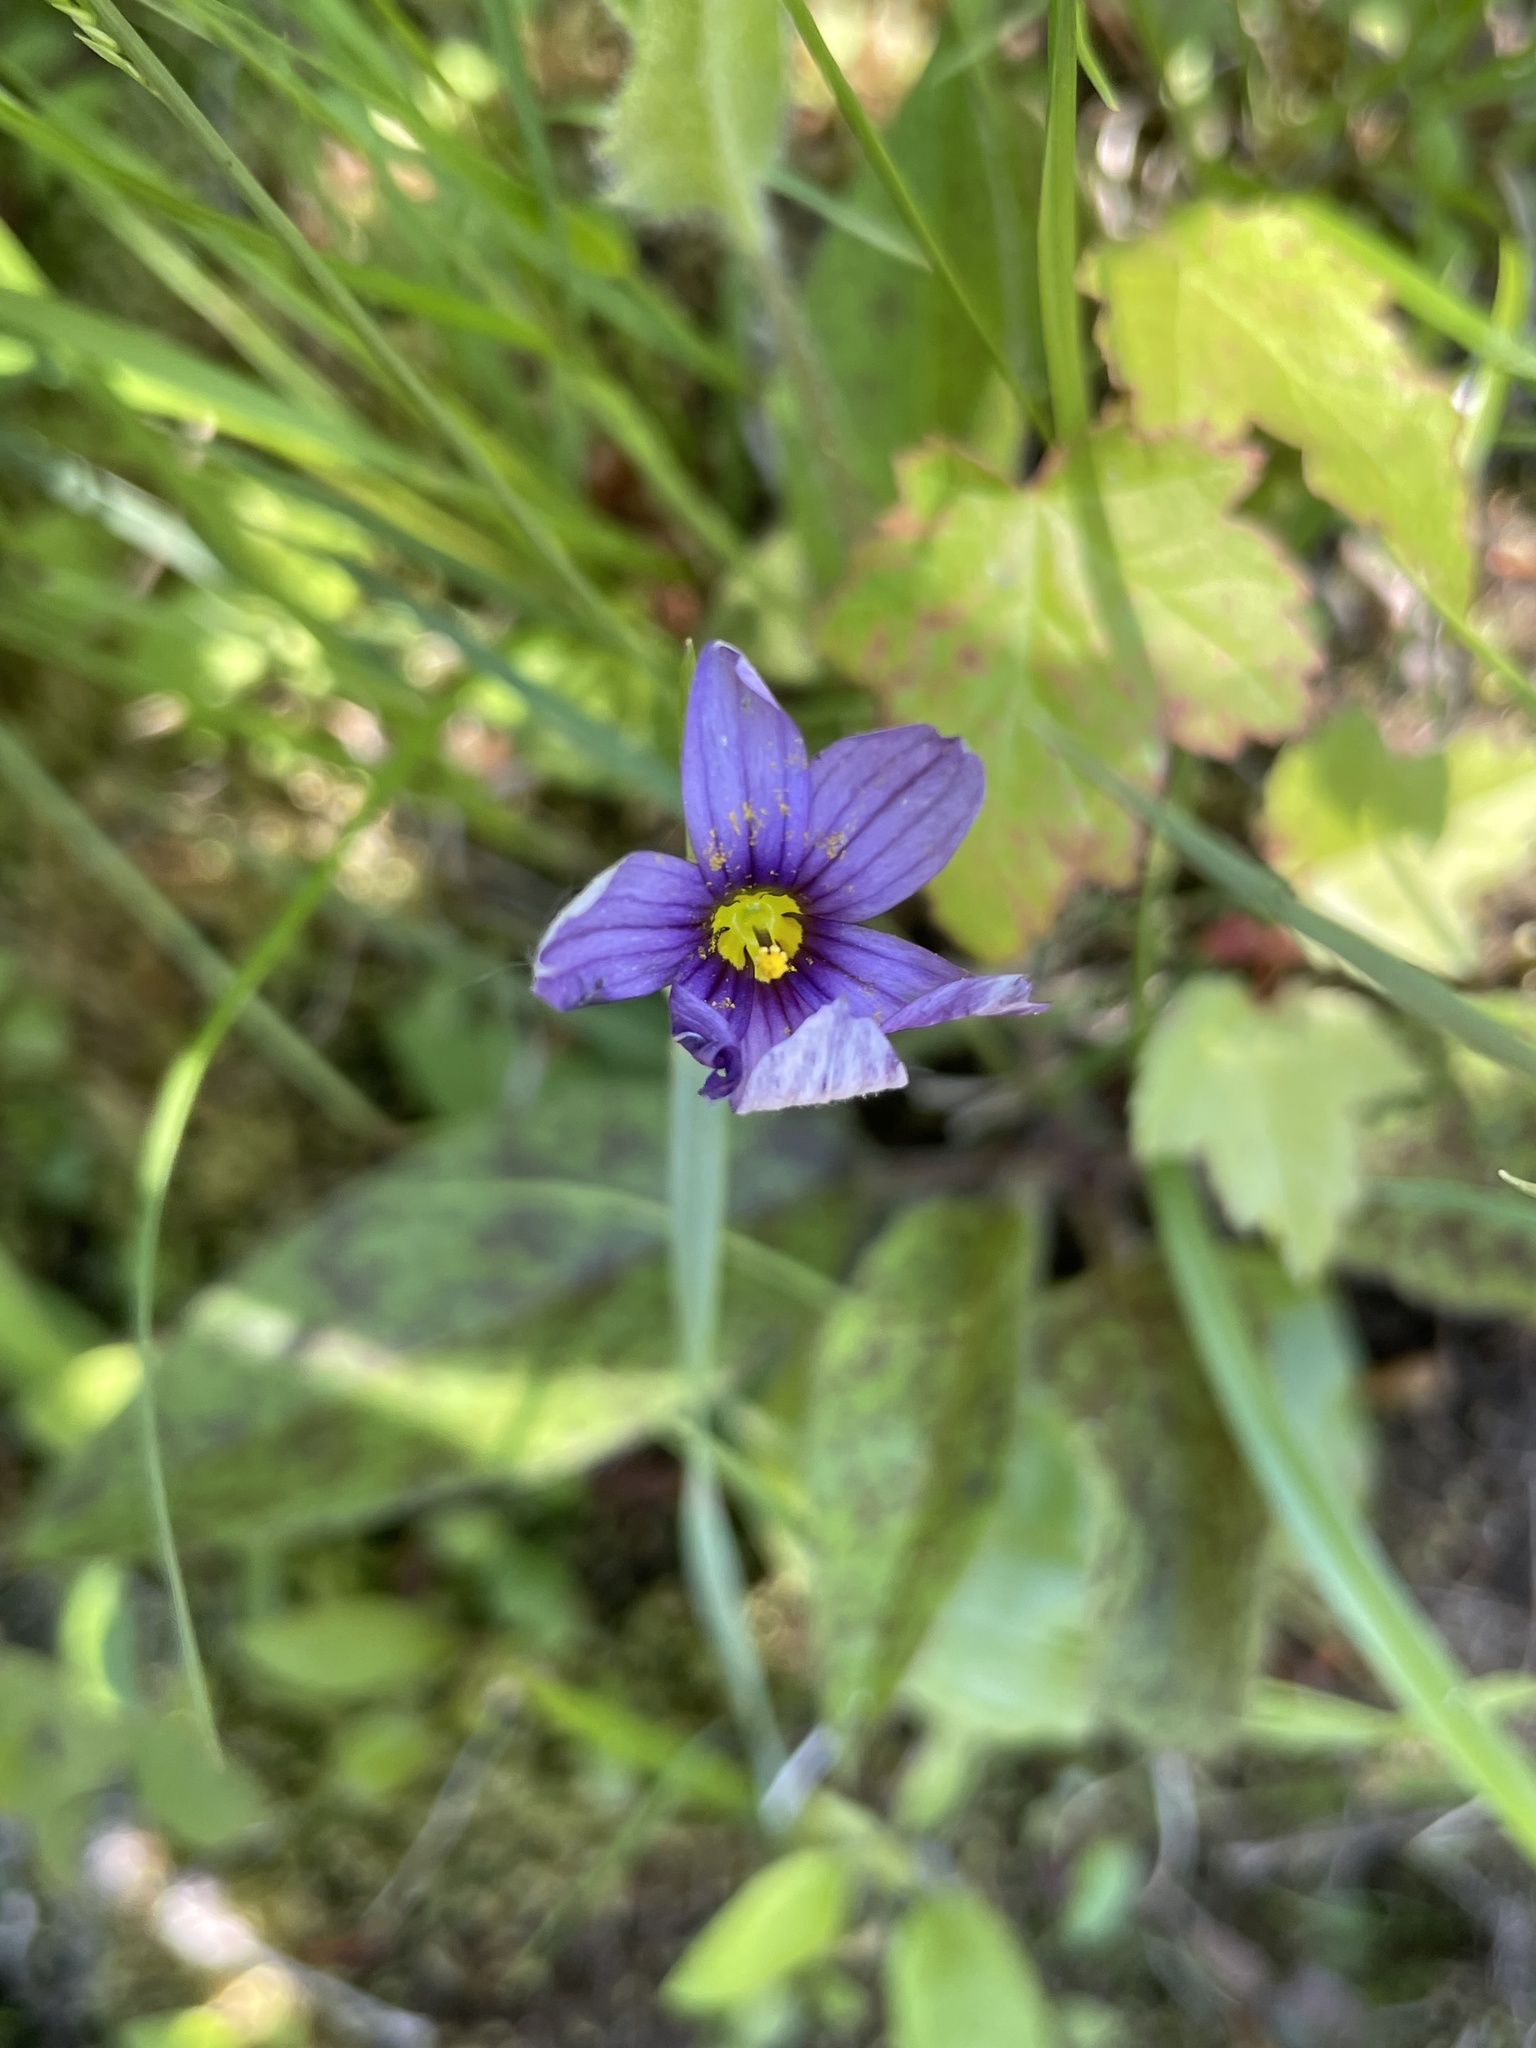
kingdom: Plantae
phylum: Tracheophyta
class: Liliopsida
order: Asparagales
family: Iridaceae
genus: Sisyrinchium
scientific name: Sisyrinchium montanum
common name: American blue-eyed-grass
